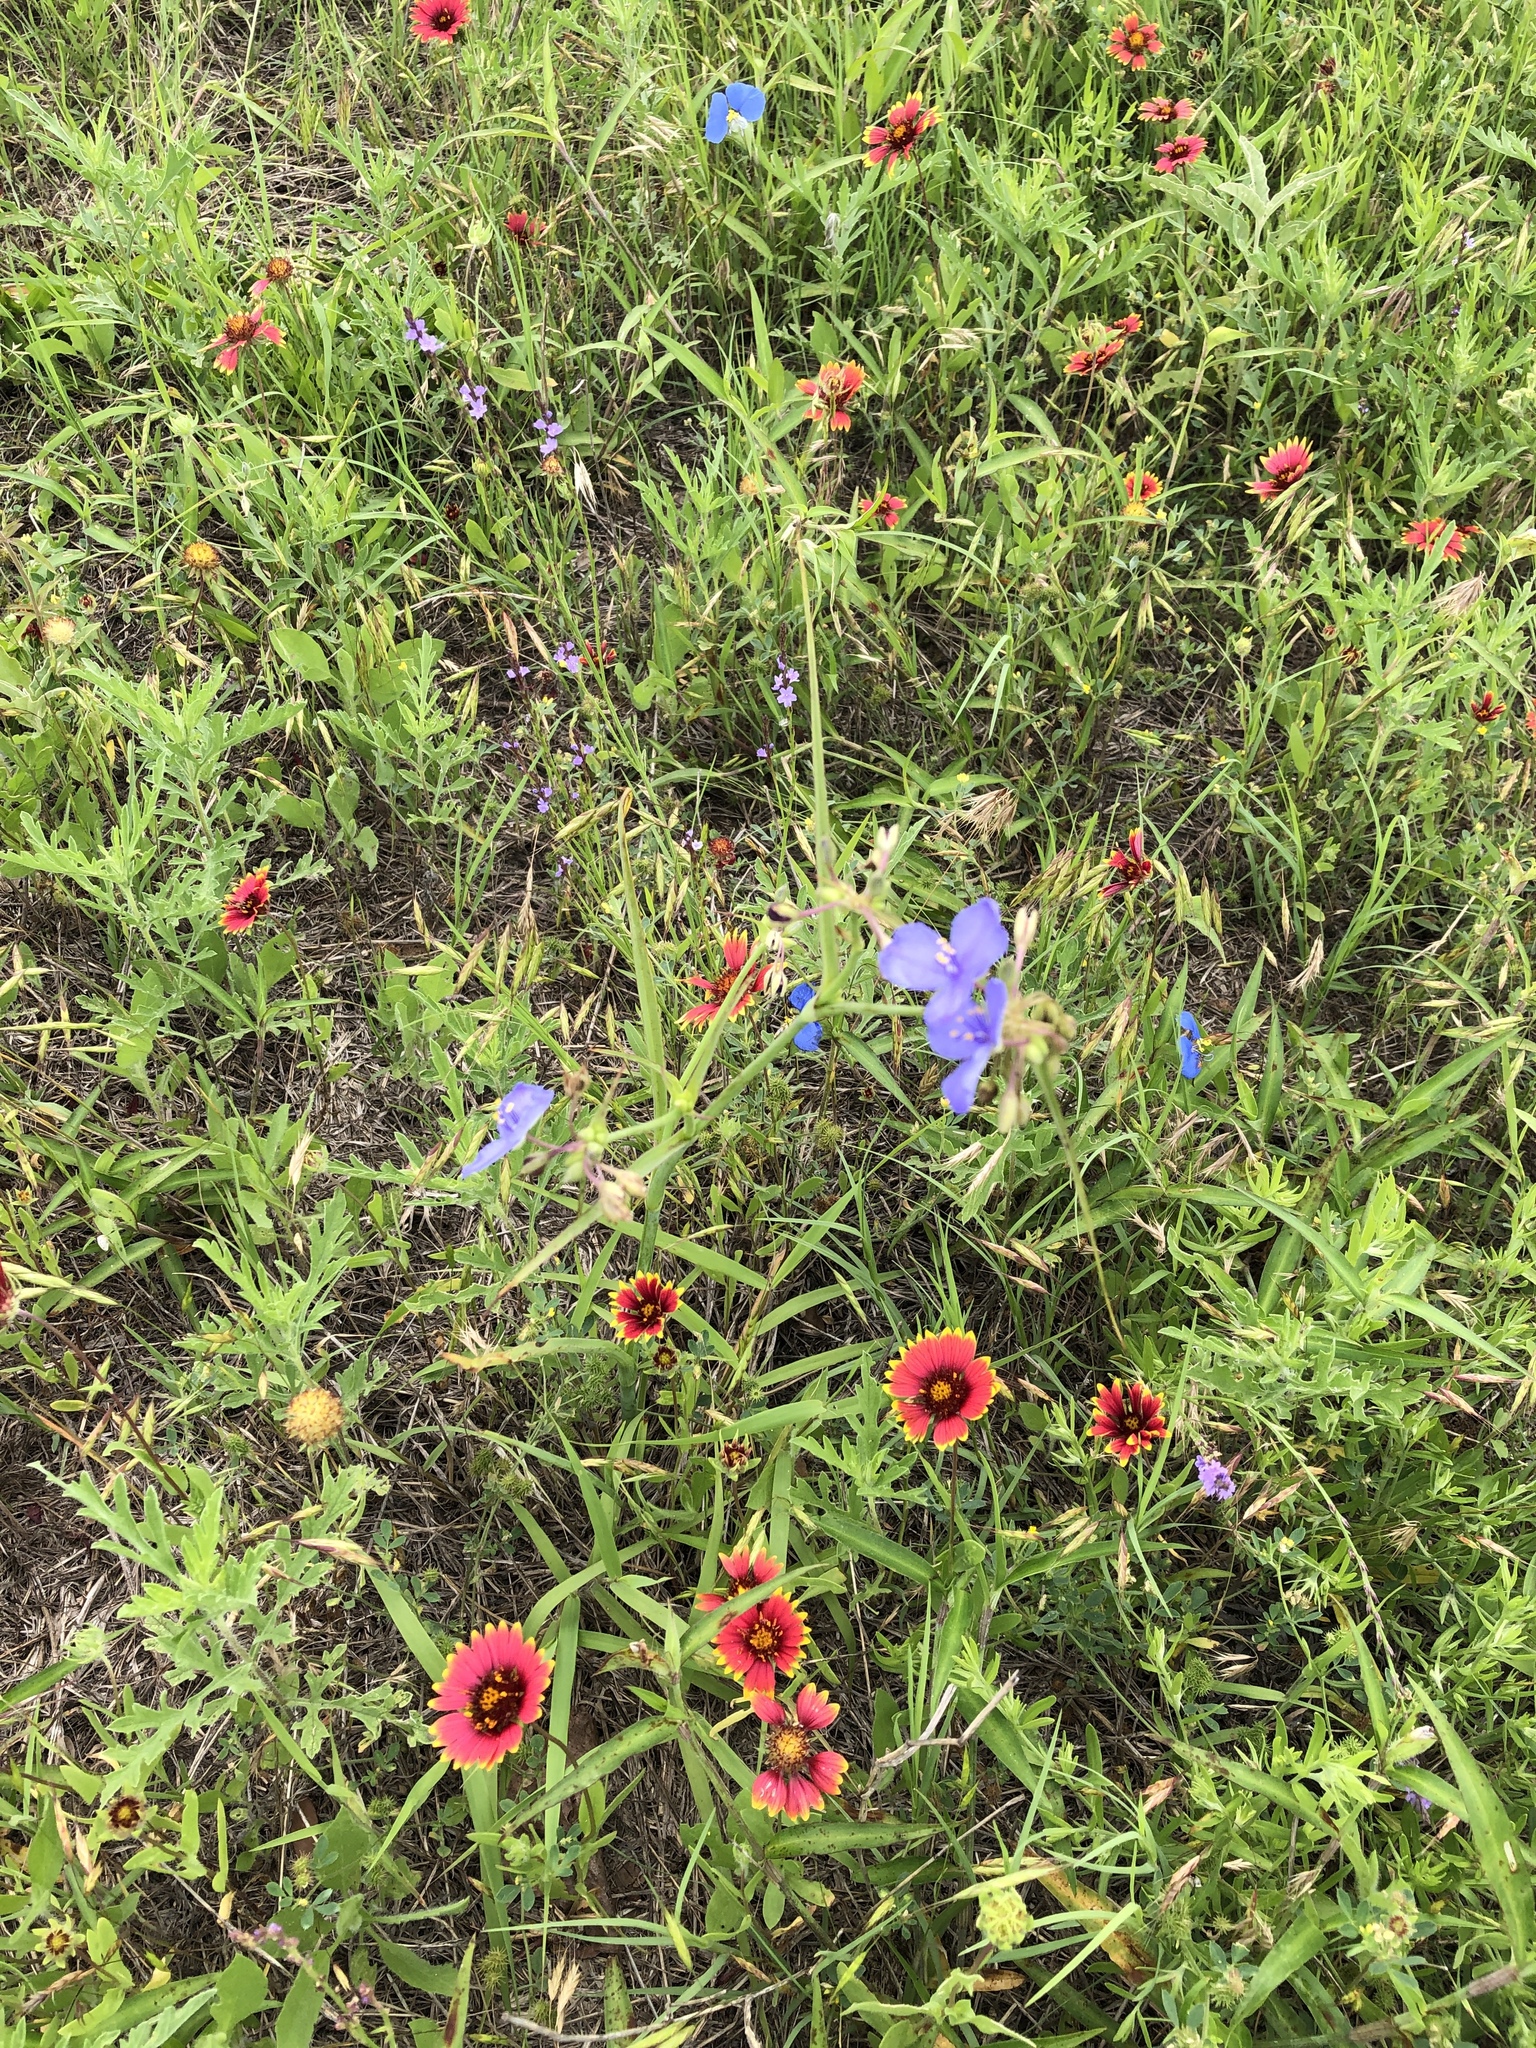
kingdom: Plantae
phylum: Tracheophyta
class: Liliopsida
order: Commelinales
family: Commelinaceae
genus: Tradescantia
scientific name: Tradescantia occidentalis
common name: Prairie spiderwort
